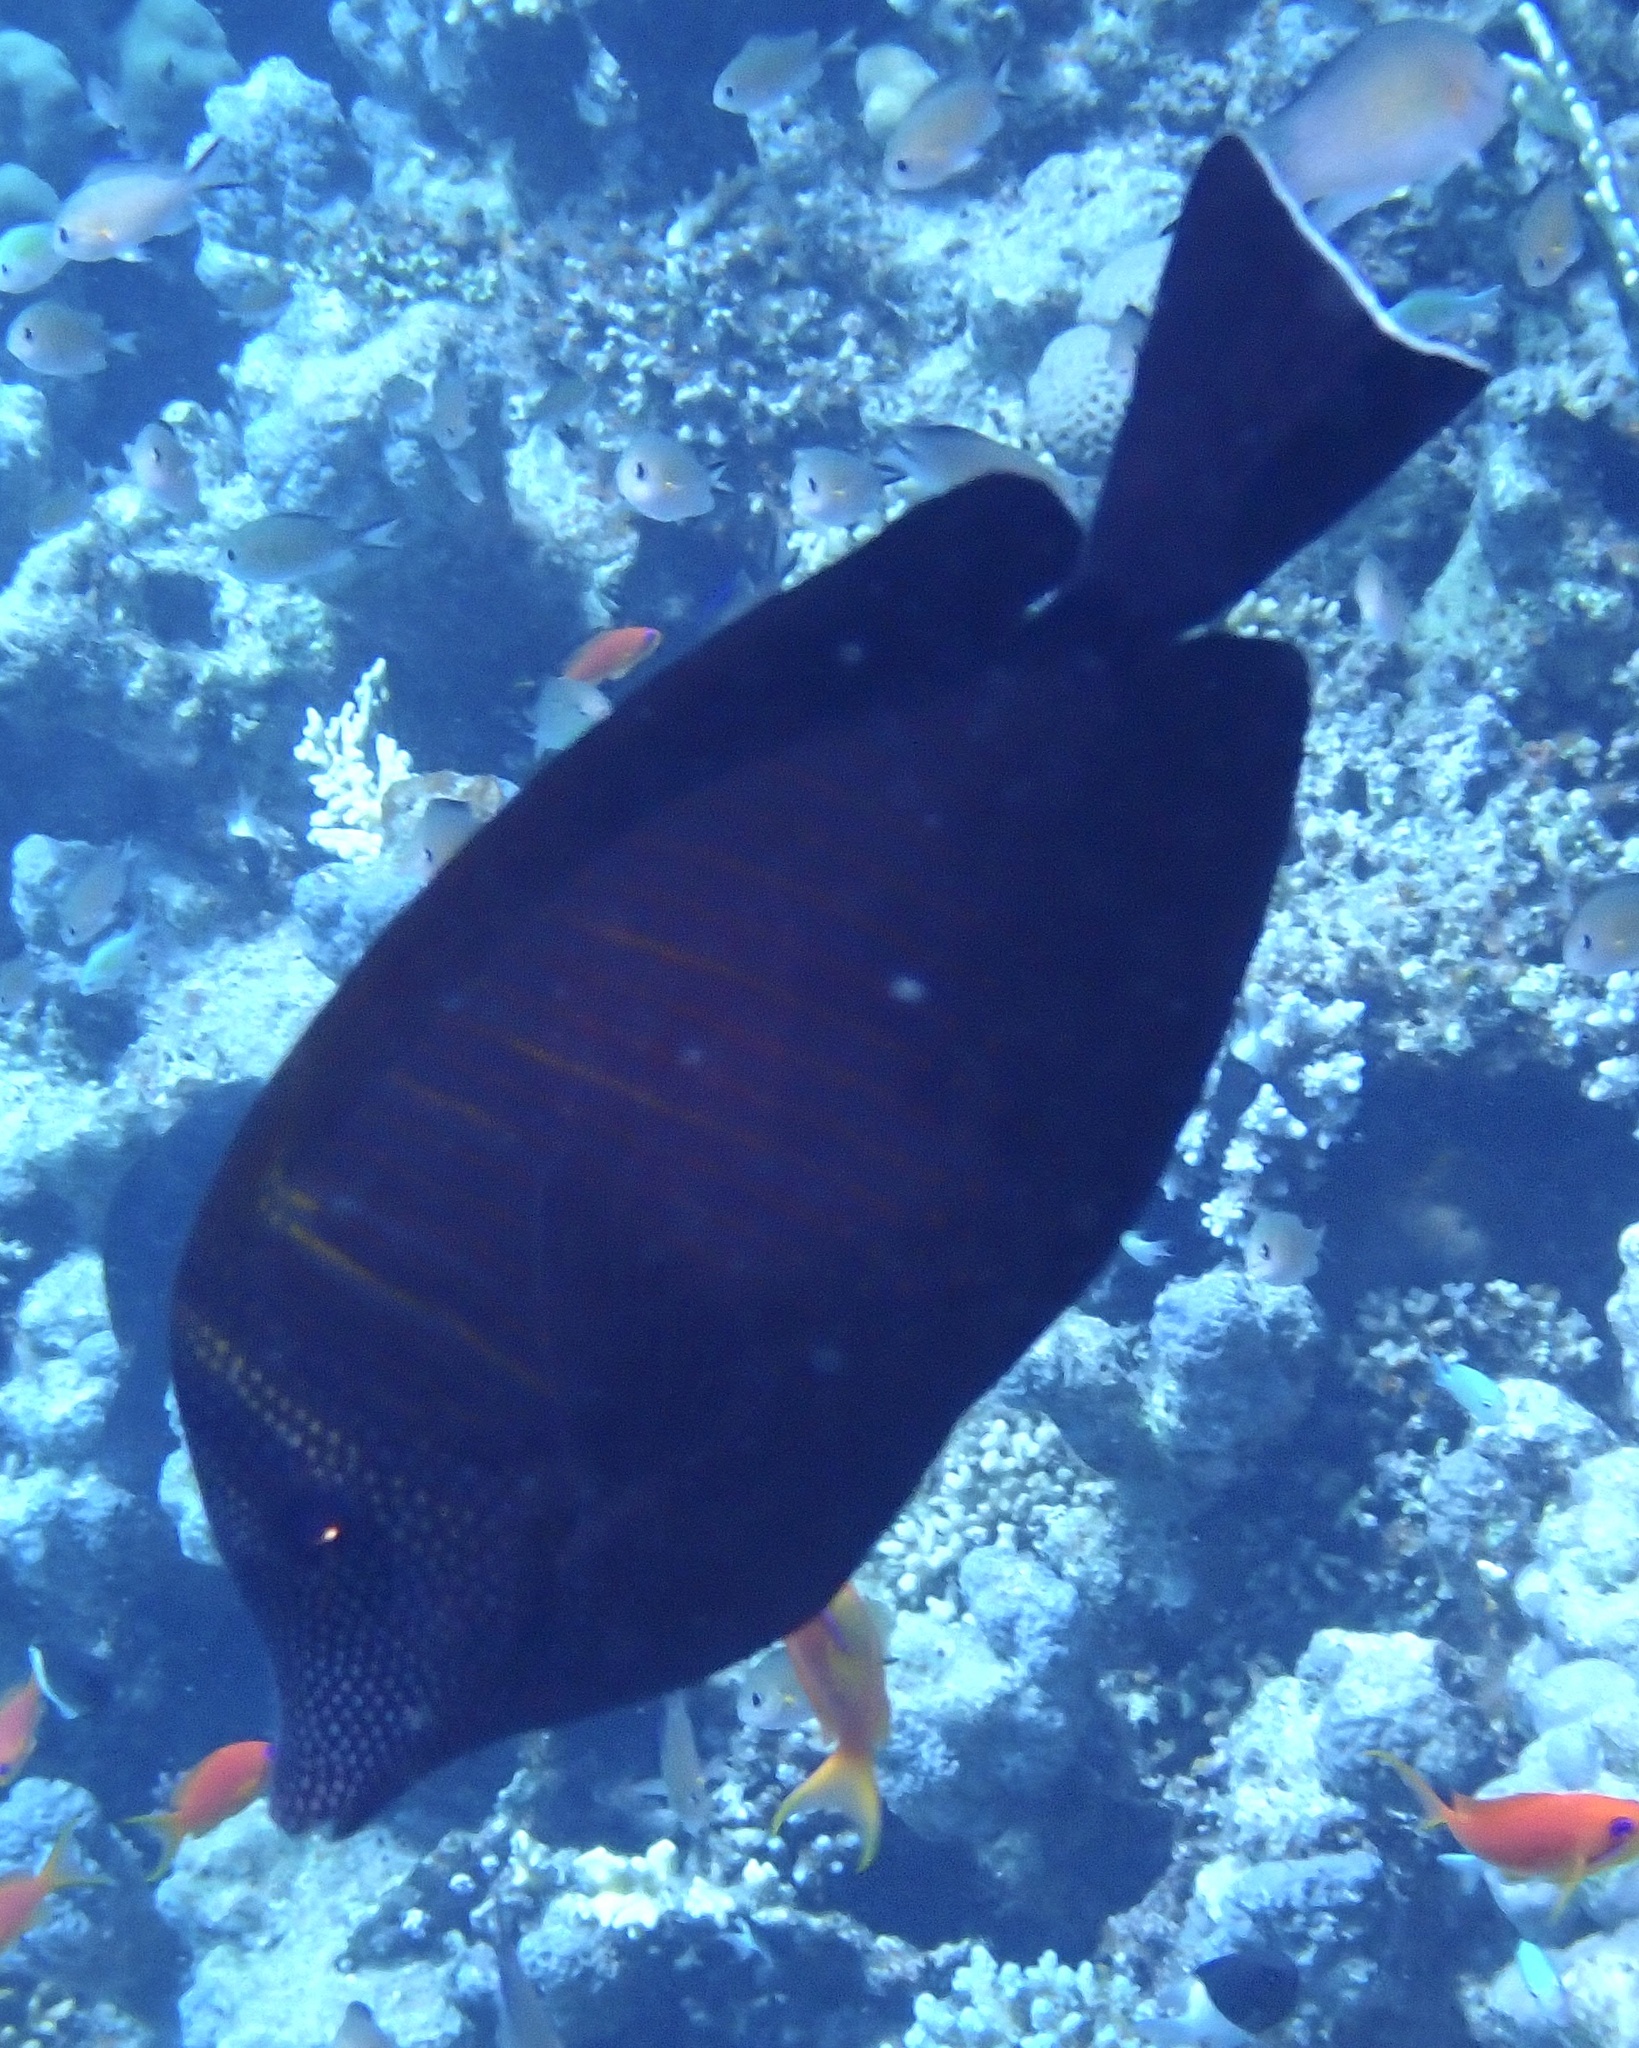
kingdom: Animalia
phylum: Chordata
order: Perciformes
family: Acanthuridae
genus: Zebrasoma
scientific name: Zebrasoma desjardinii
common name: Desjardin's sailfin tang
